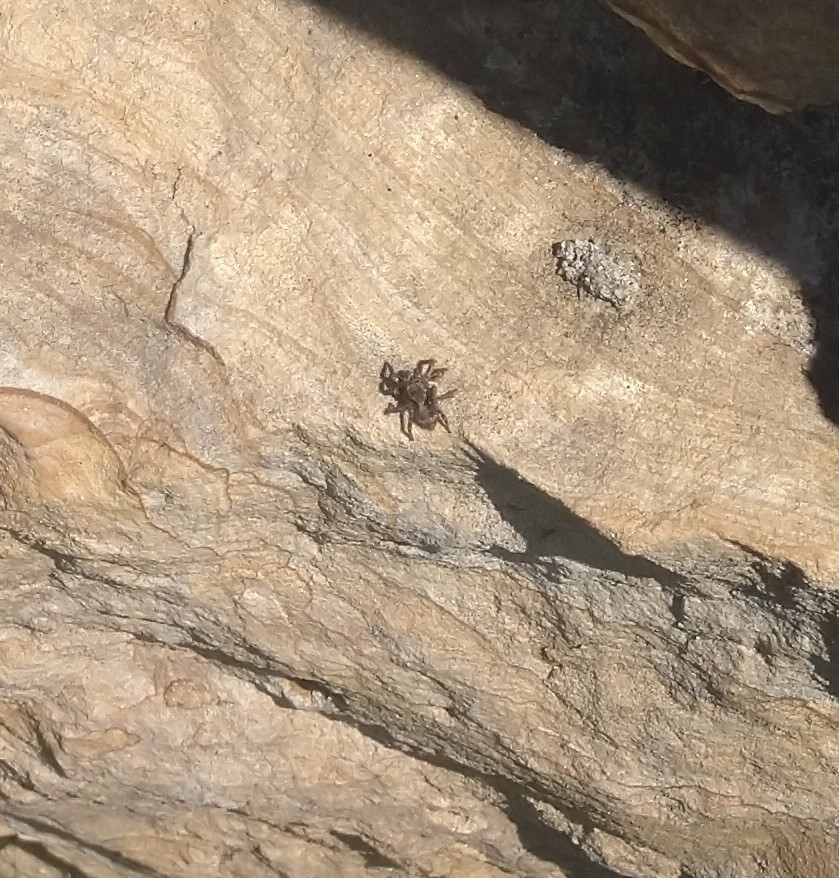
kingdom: Animalia
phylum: Arthropoda
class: Arachnida
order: Araneae
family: Salticidae
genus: Naphrys
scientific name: Naphrys pulex
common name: Flea jumping spider
